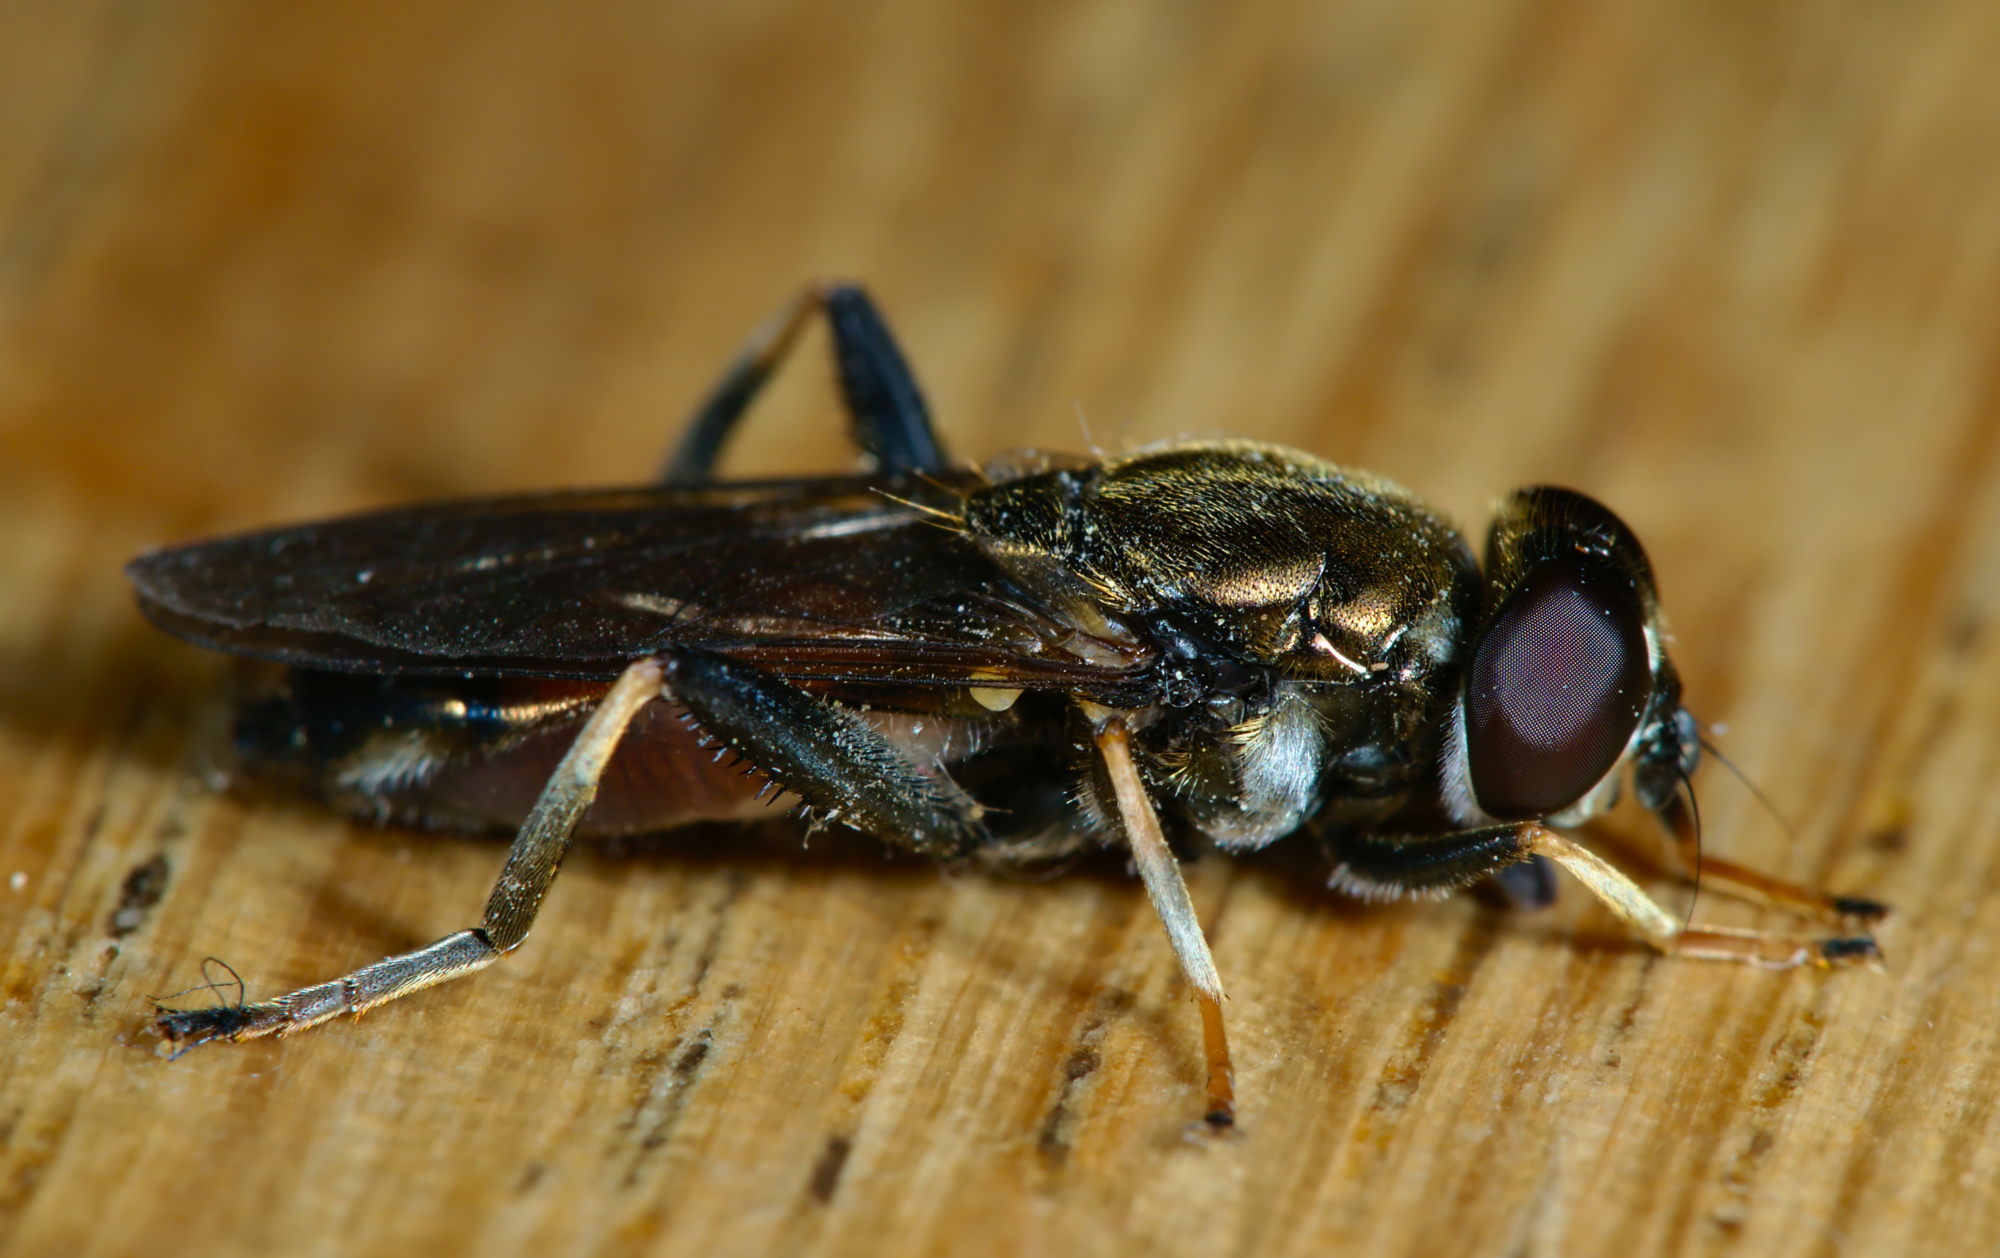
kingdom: Animalia
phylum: Arthropoda
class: Insecta
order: Diptera
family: Syrphidae
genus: Xylota
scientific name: Xylota segnis
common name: Brown-toed forest fly
